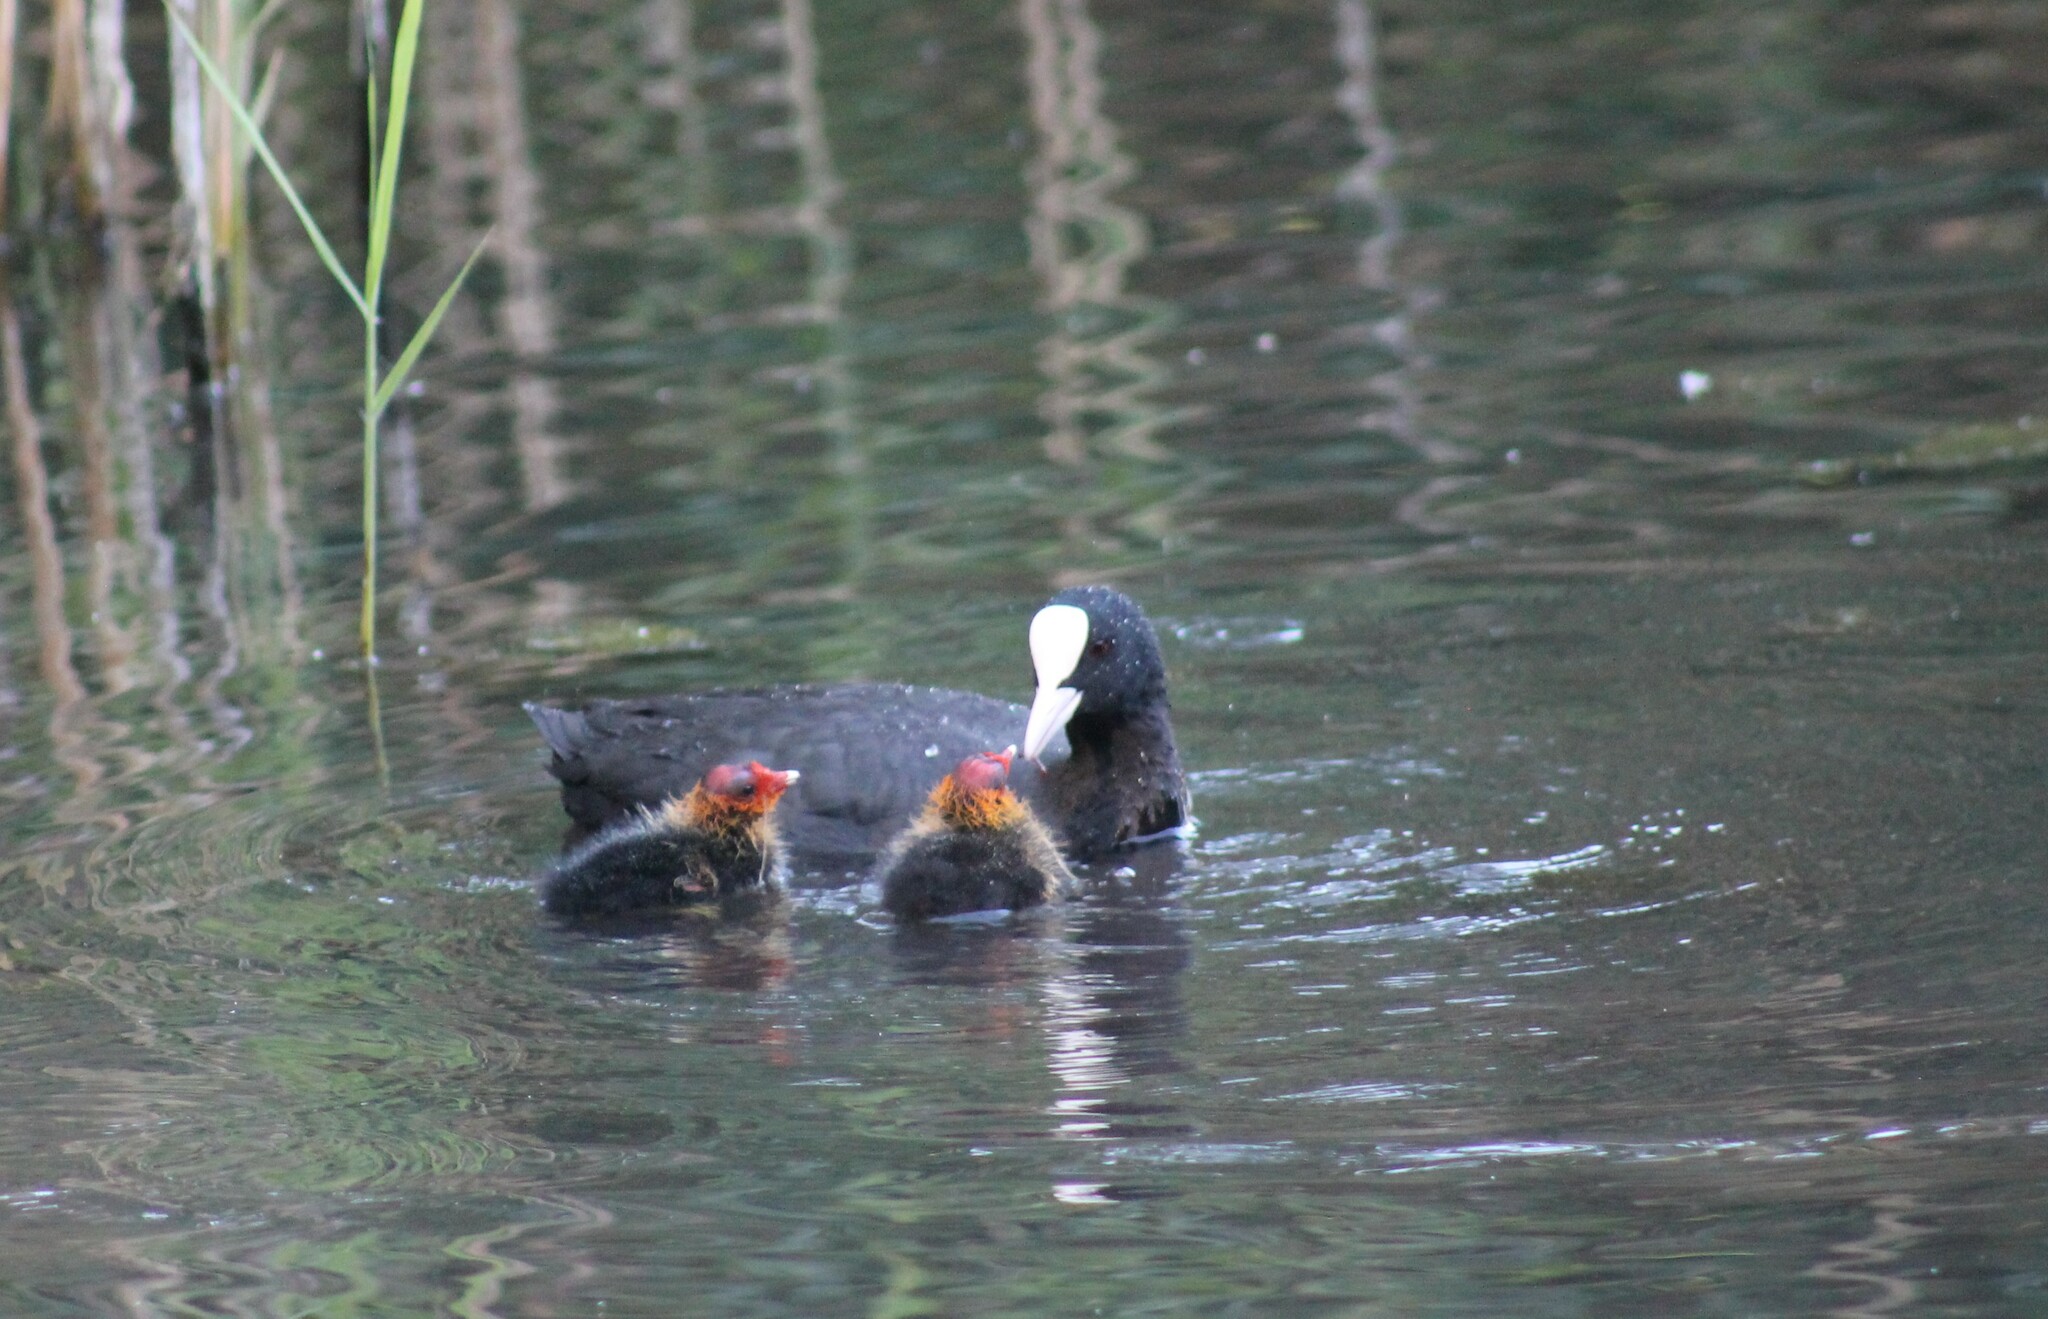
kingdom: Animalia
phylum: Chordata
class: Aves
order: Gruiformes
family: Rallidae
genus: Fulica
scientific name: Fulica atra
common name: Eurasian coot
